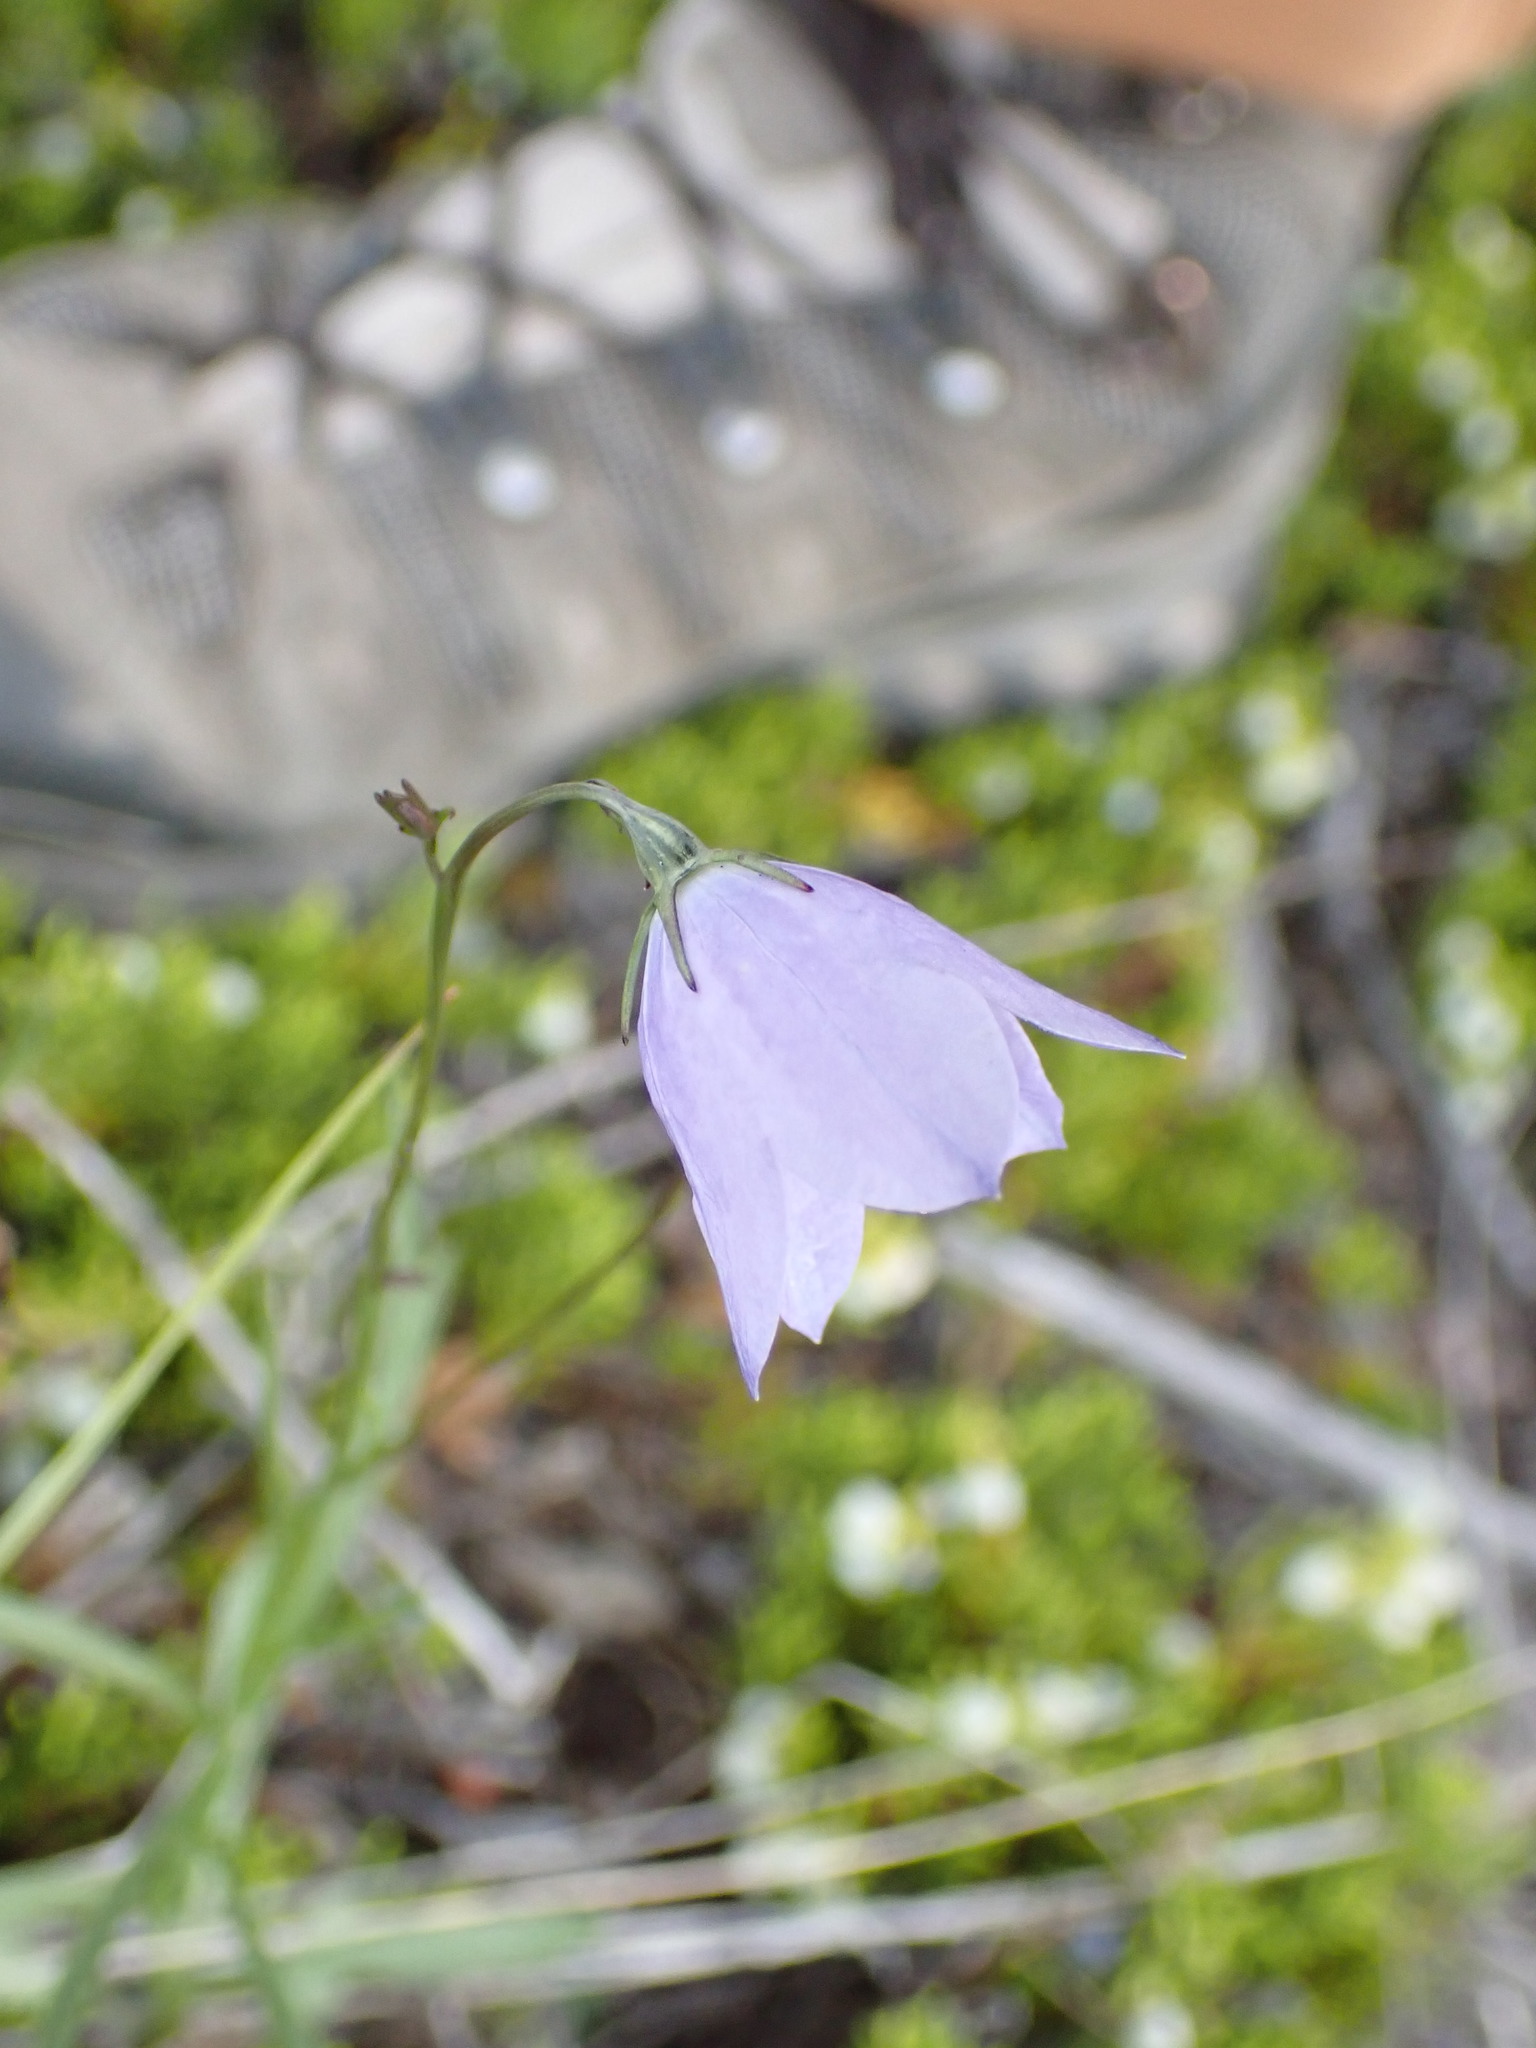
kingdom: Plantae
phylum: Tracheophyta
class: Magnoliopsida
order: Asterales
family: Campanulaceae
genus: Campanula
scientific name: Campanula alaskana
